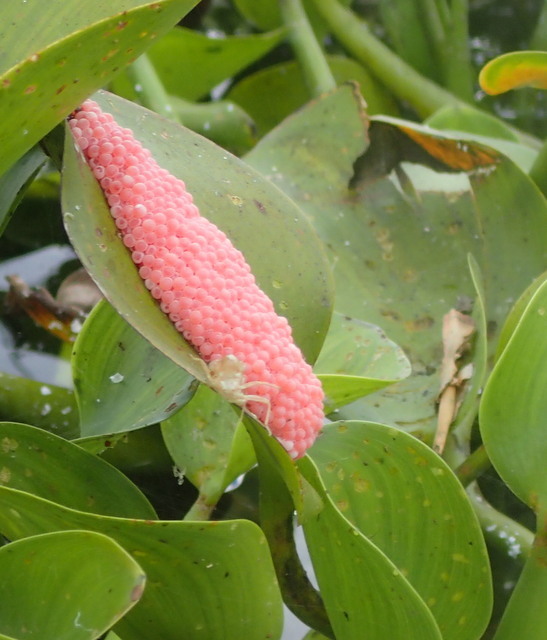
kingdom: Animalia
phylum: Mollusca
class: Gastropoda
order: Architaenioglossa
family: Ampullariidae
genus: Pomacea
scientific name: Pomacea maculata
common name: Giant applesnail
